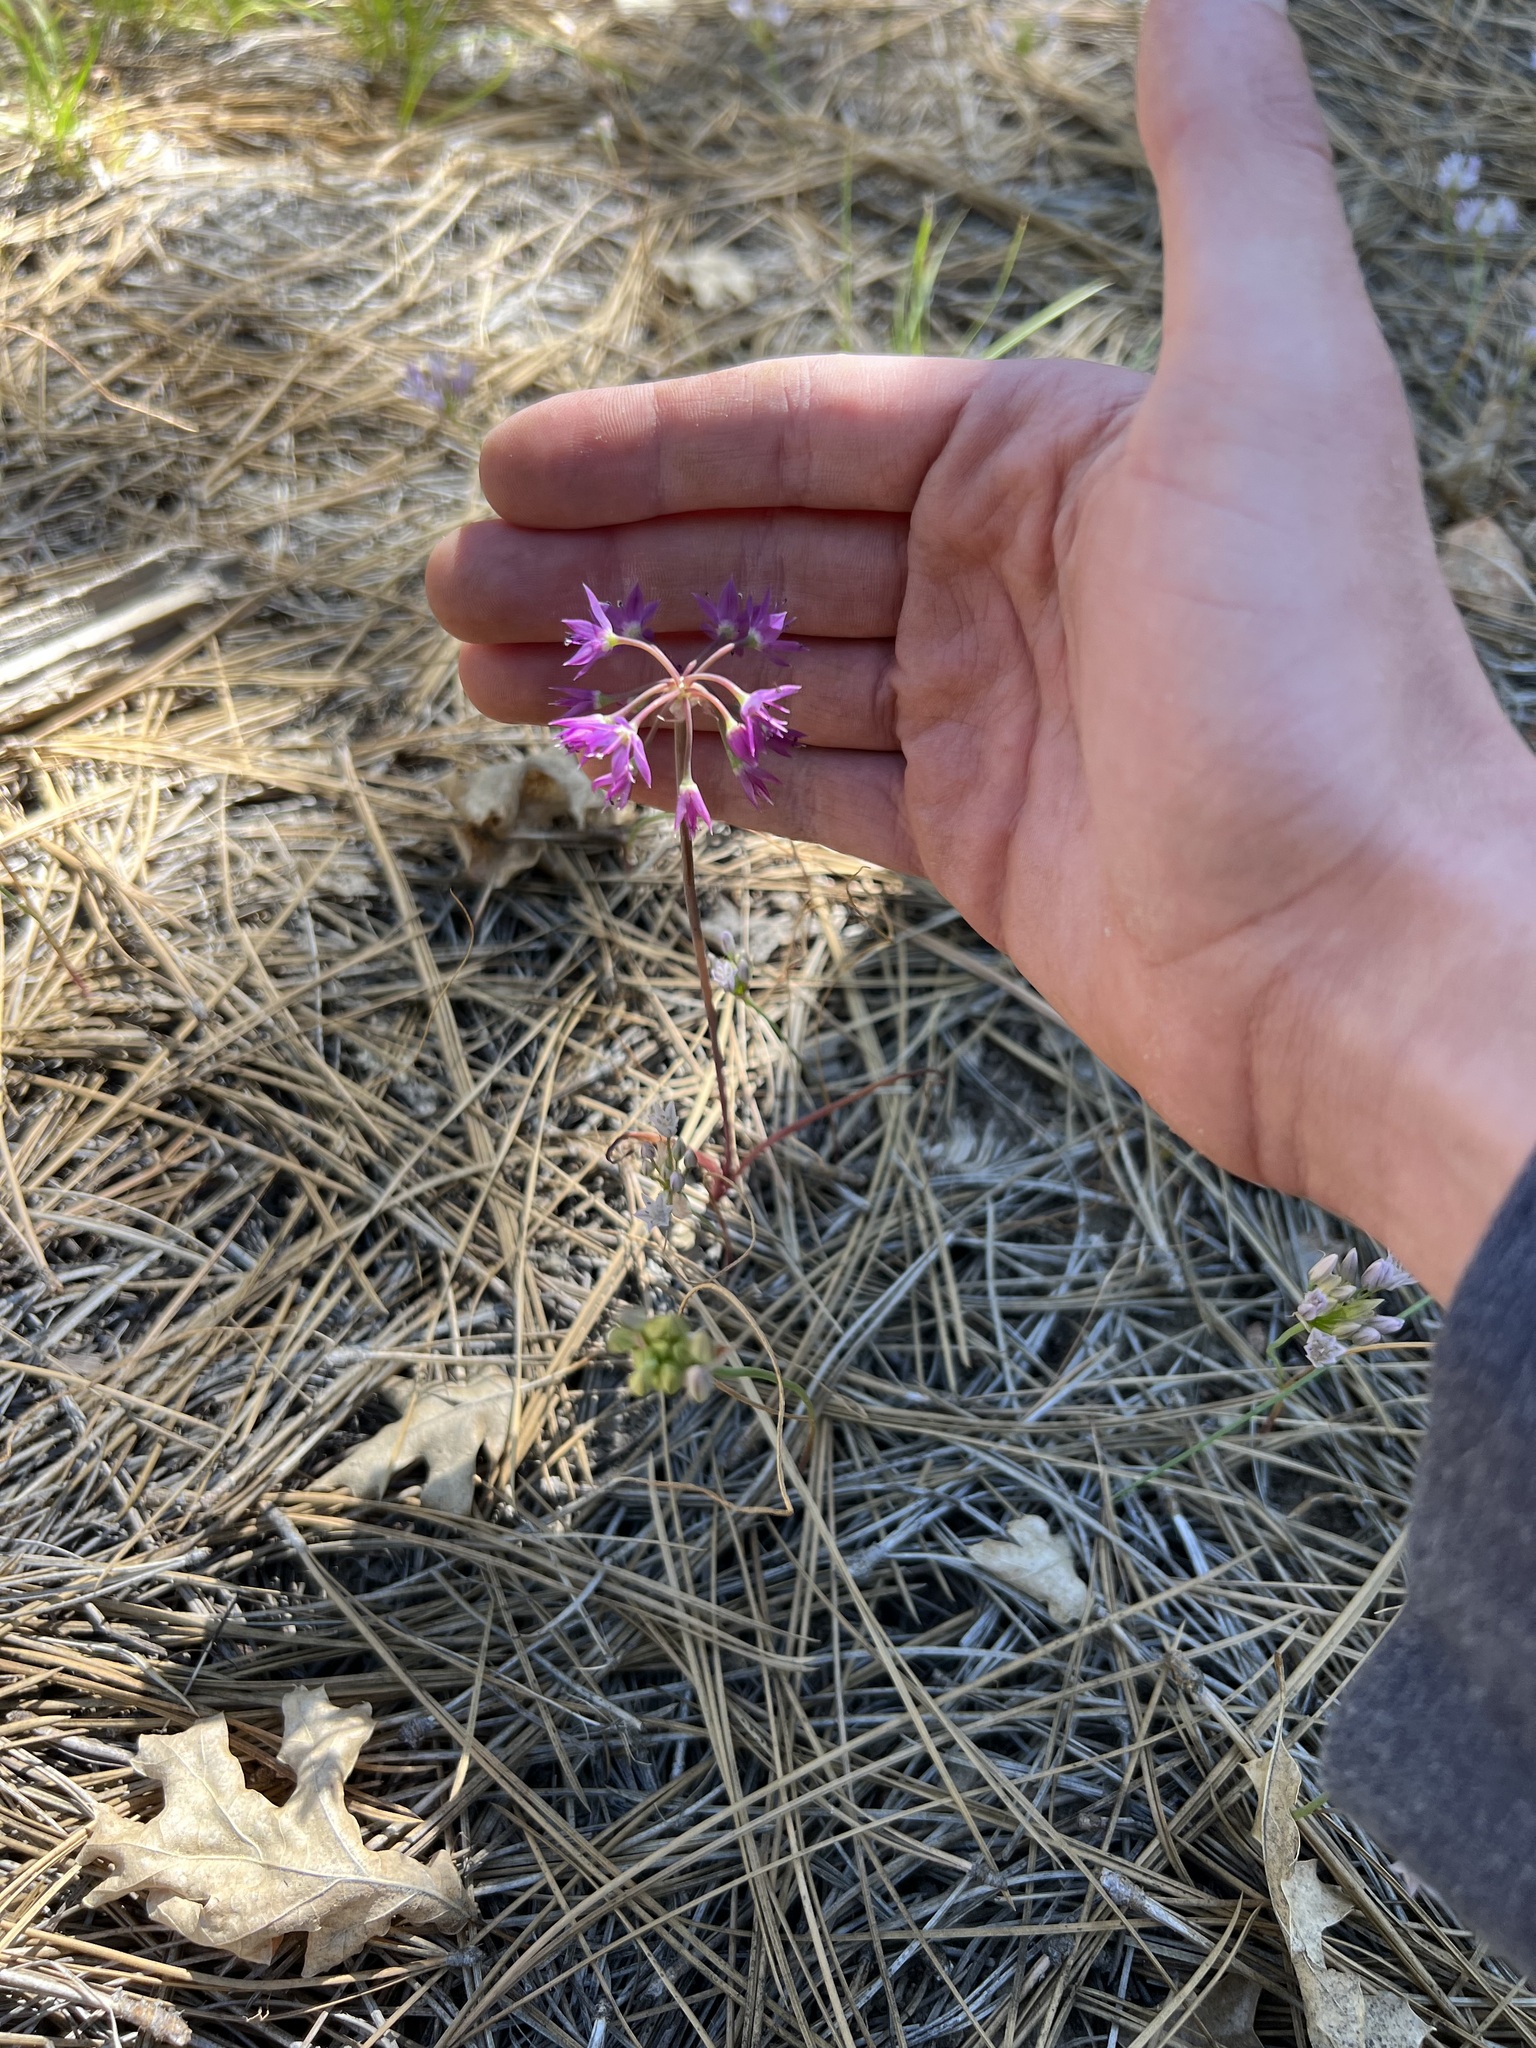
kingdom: Plantae
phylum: Tracheophyta
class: Liliopsida
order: Asparagales
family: Amaryllidaceae
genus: Allium
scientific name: Allium campanulatum
